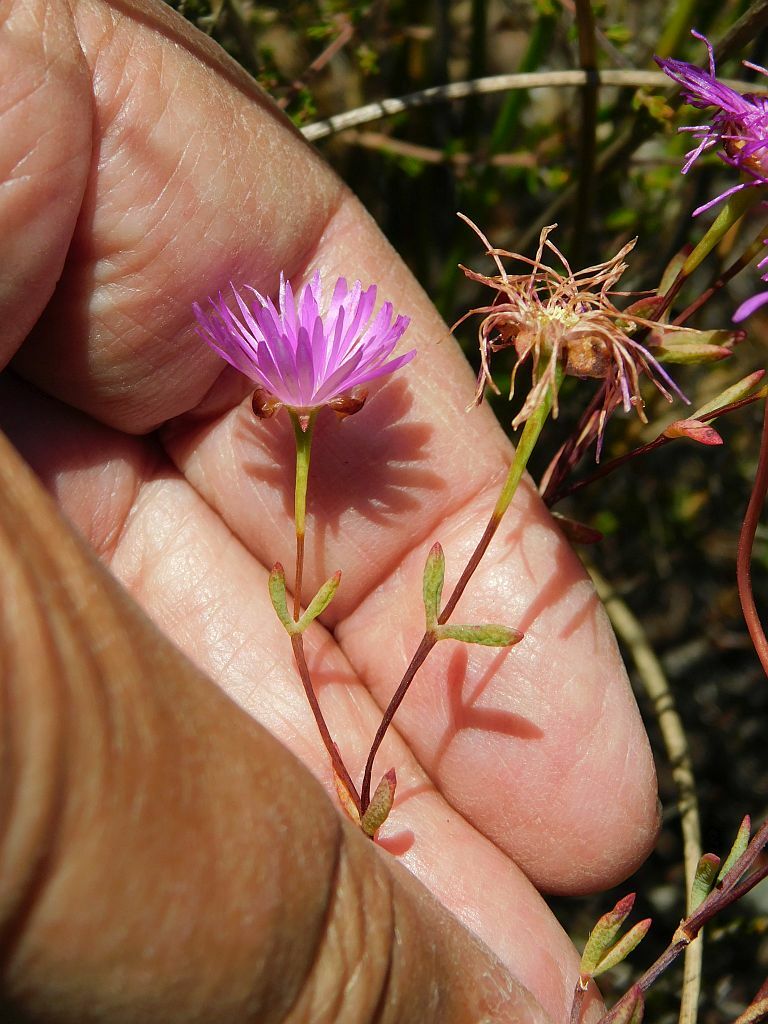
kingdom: Plantae
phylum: Tracheophyta
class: Magnoliopsida
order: Caryophyllales
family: Aizoaceae
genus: Lampranthus
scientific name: Lampranthus falcatus
